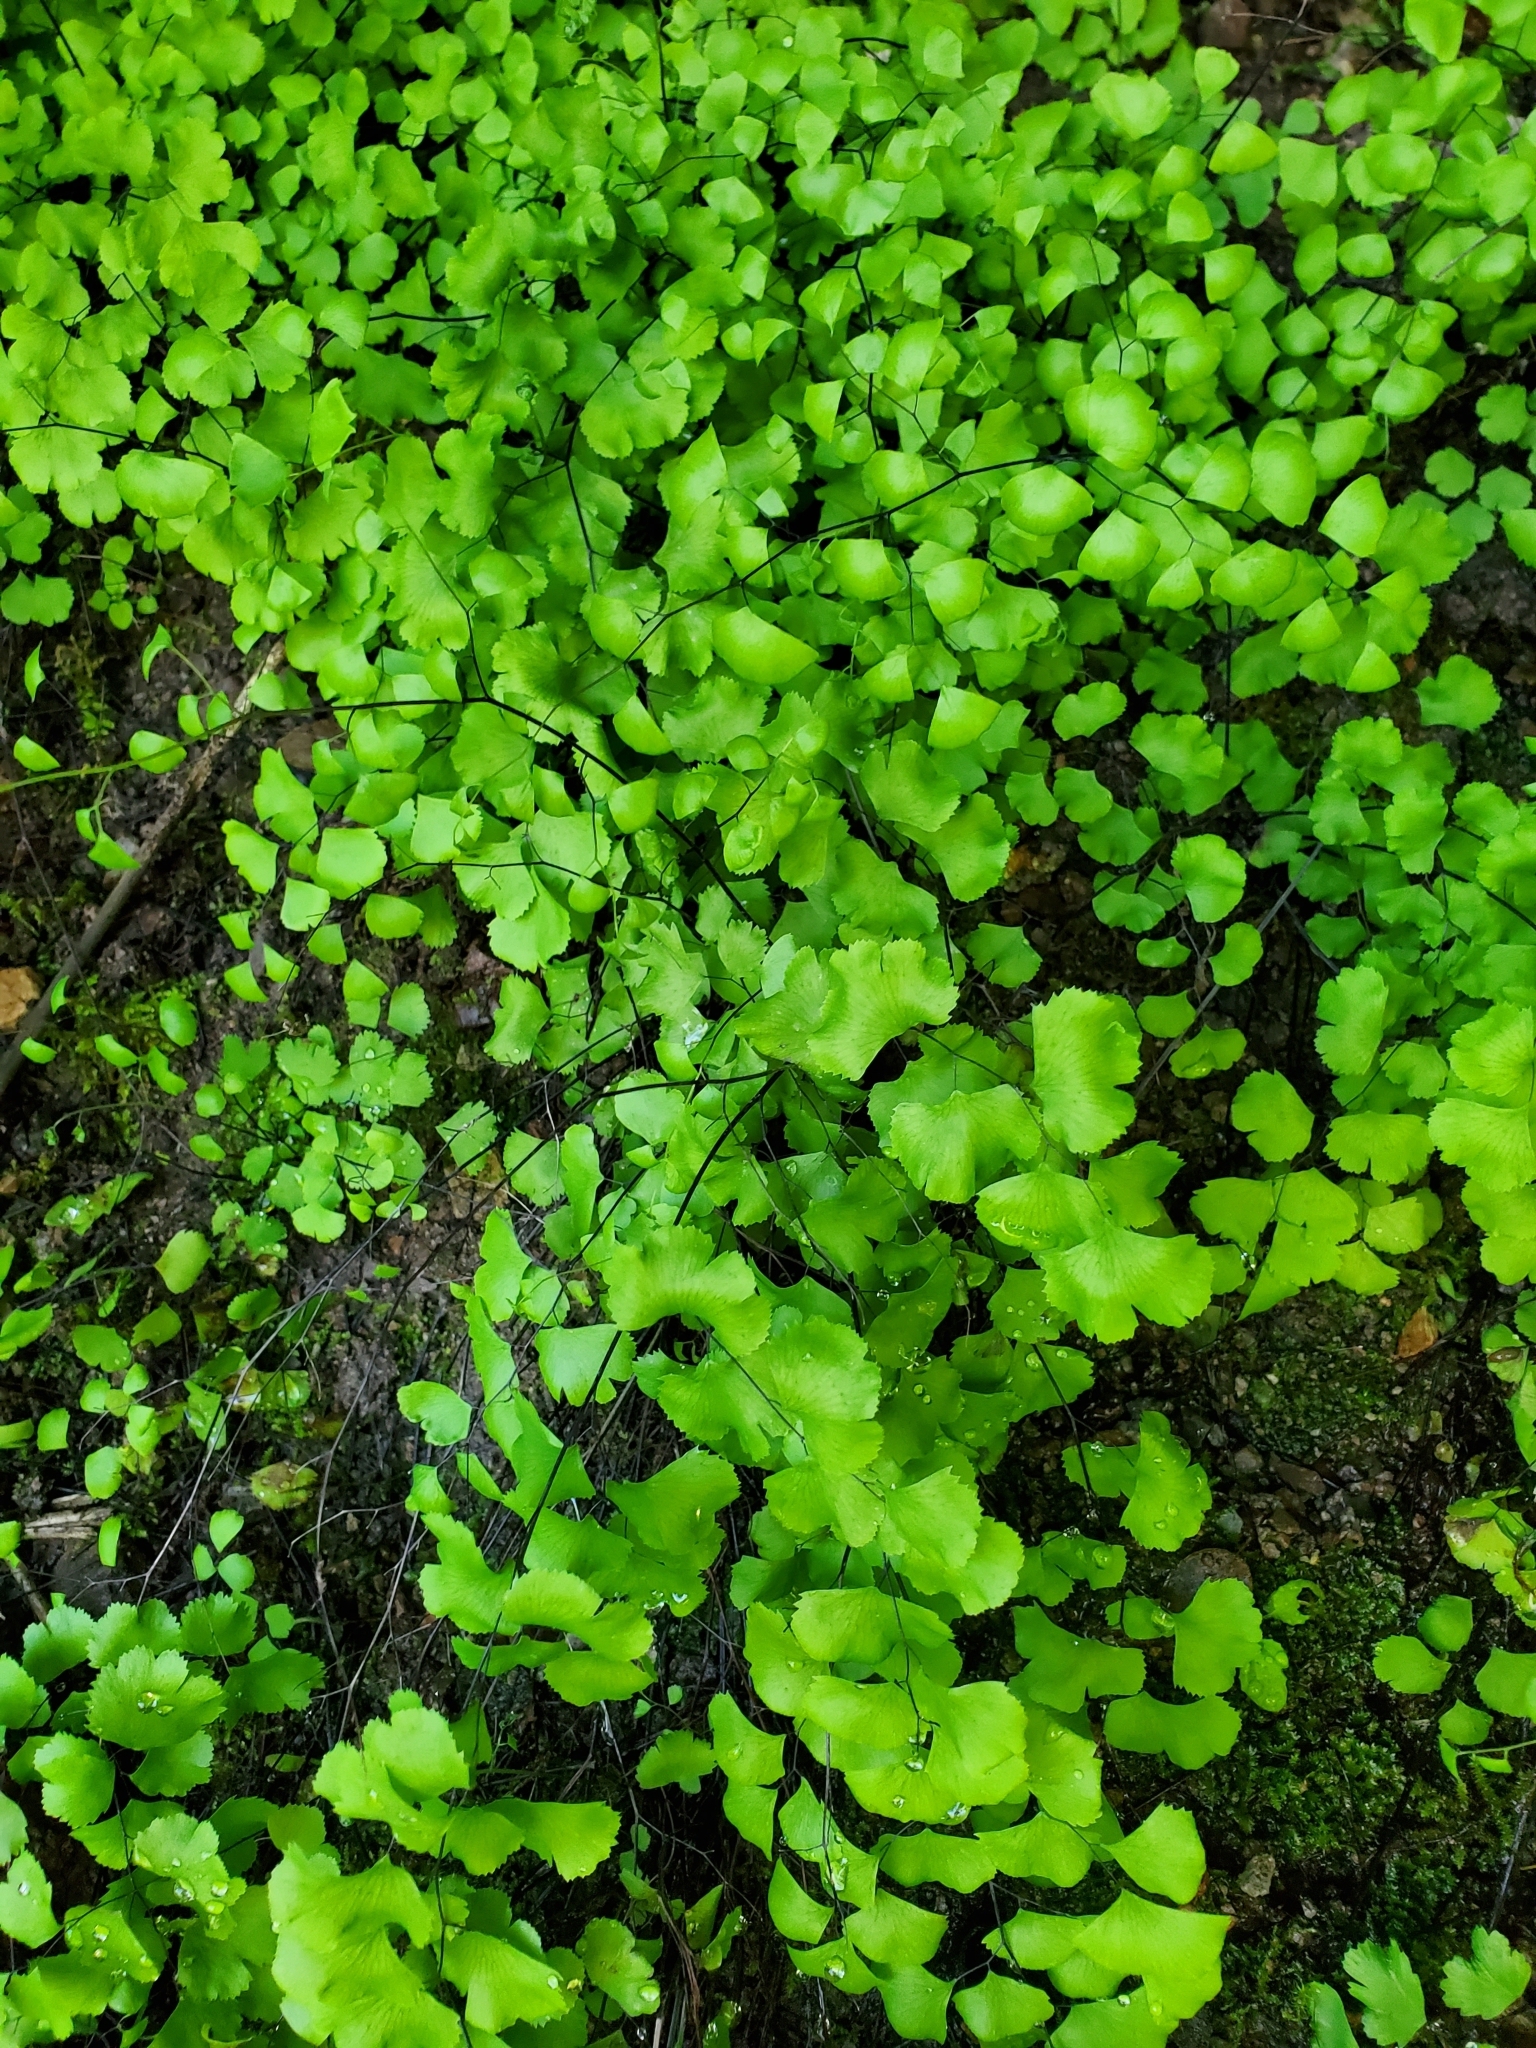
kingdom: Plantae
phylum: Tracheophyta
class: Polypodiopsida
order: Polypodiales
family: Pteridaceae
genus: Adiantum
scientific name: Adiantum jordanii
